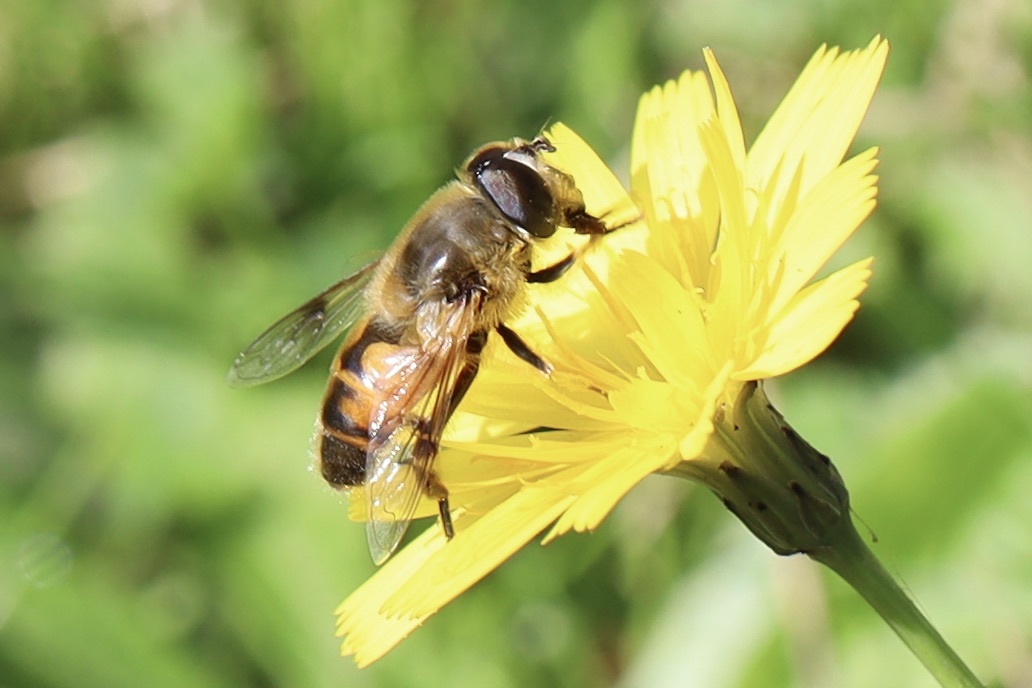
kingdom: Animalia
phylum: Arthropoda
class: Insecta
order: Diptera
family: Syrphidae
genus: Eristalis
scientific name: Eristalis tenax
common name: Drone fly
